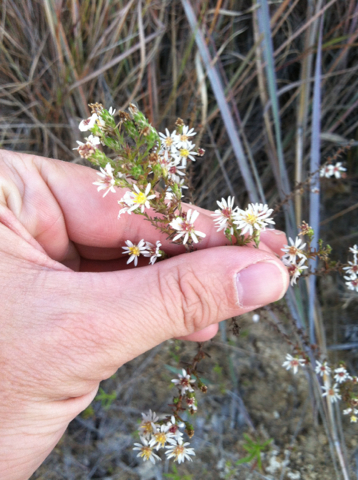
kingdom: Plantae
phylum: Tracheophyta
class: Magnoliopsida
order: Asterales
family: Asteraceae
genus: Symphyotrichum
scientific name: Symphyotrichum ericoides
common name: Heath aster
